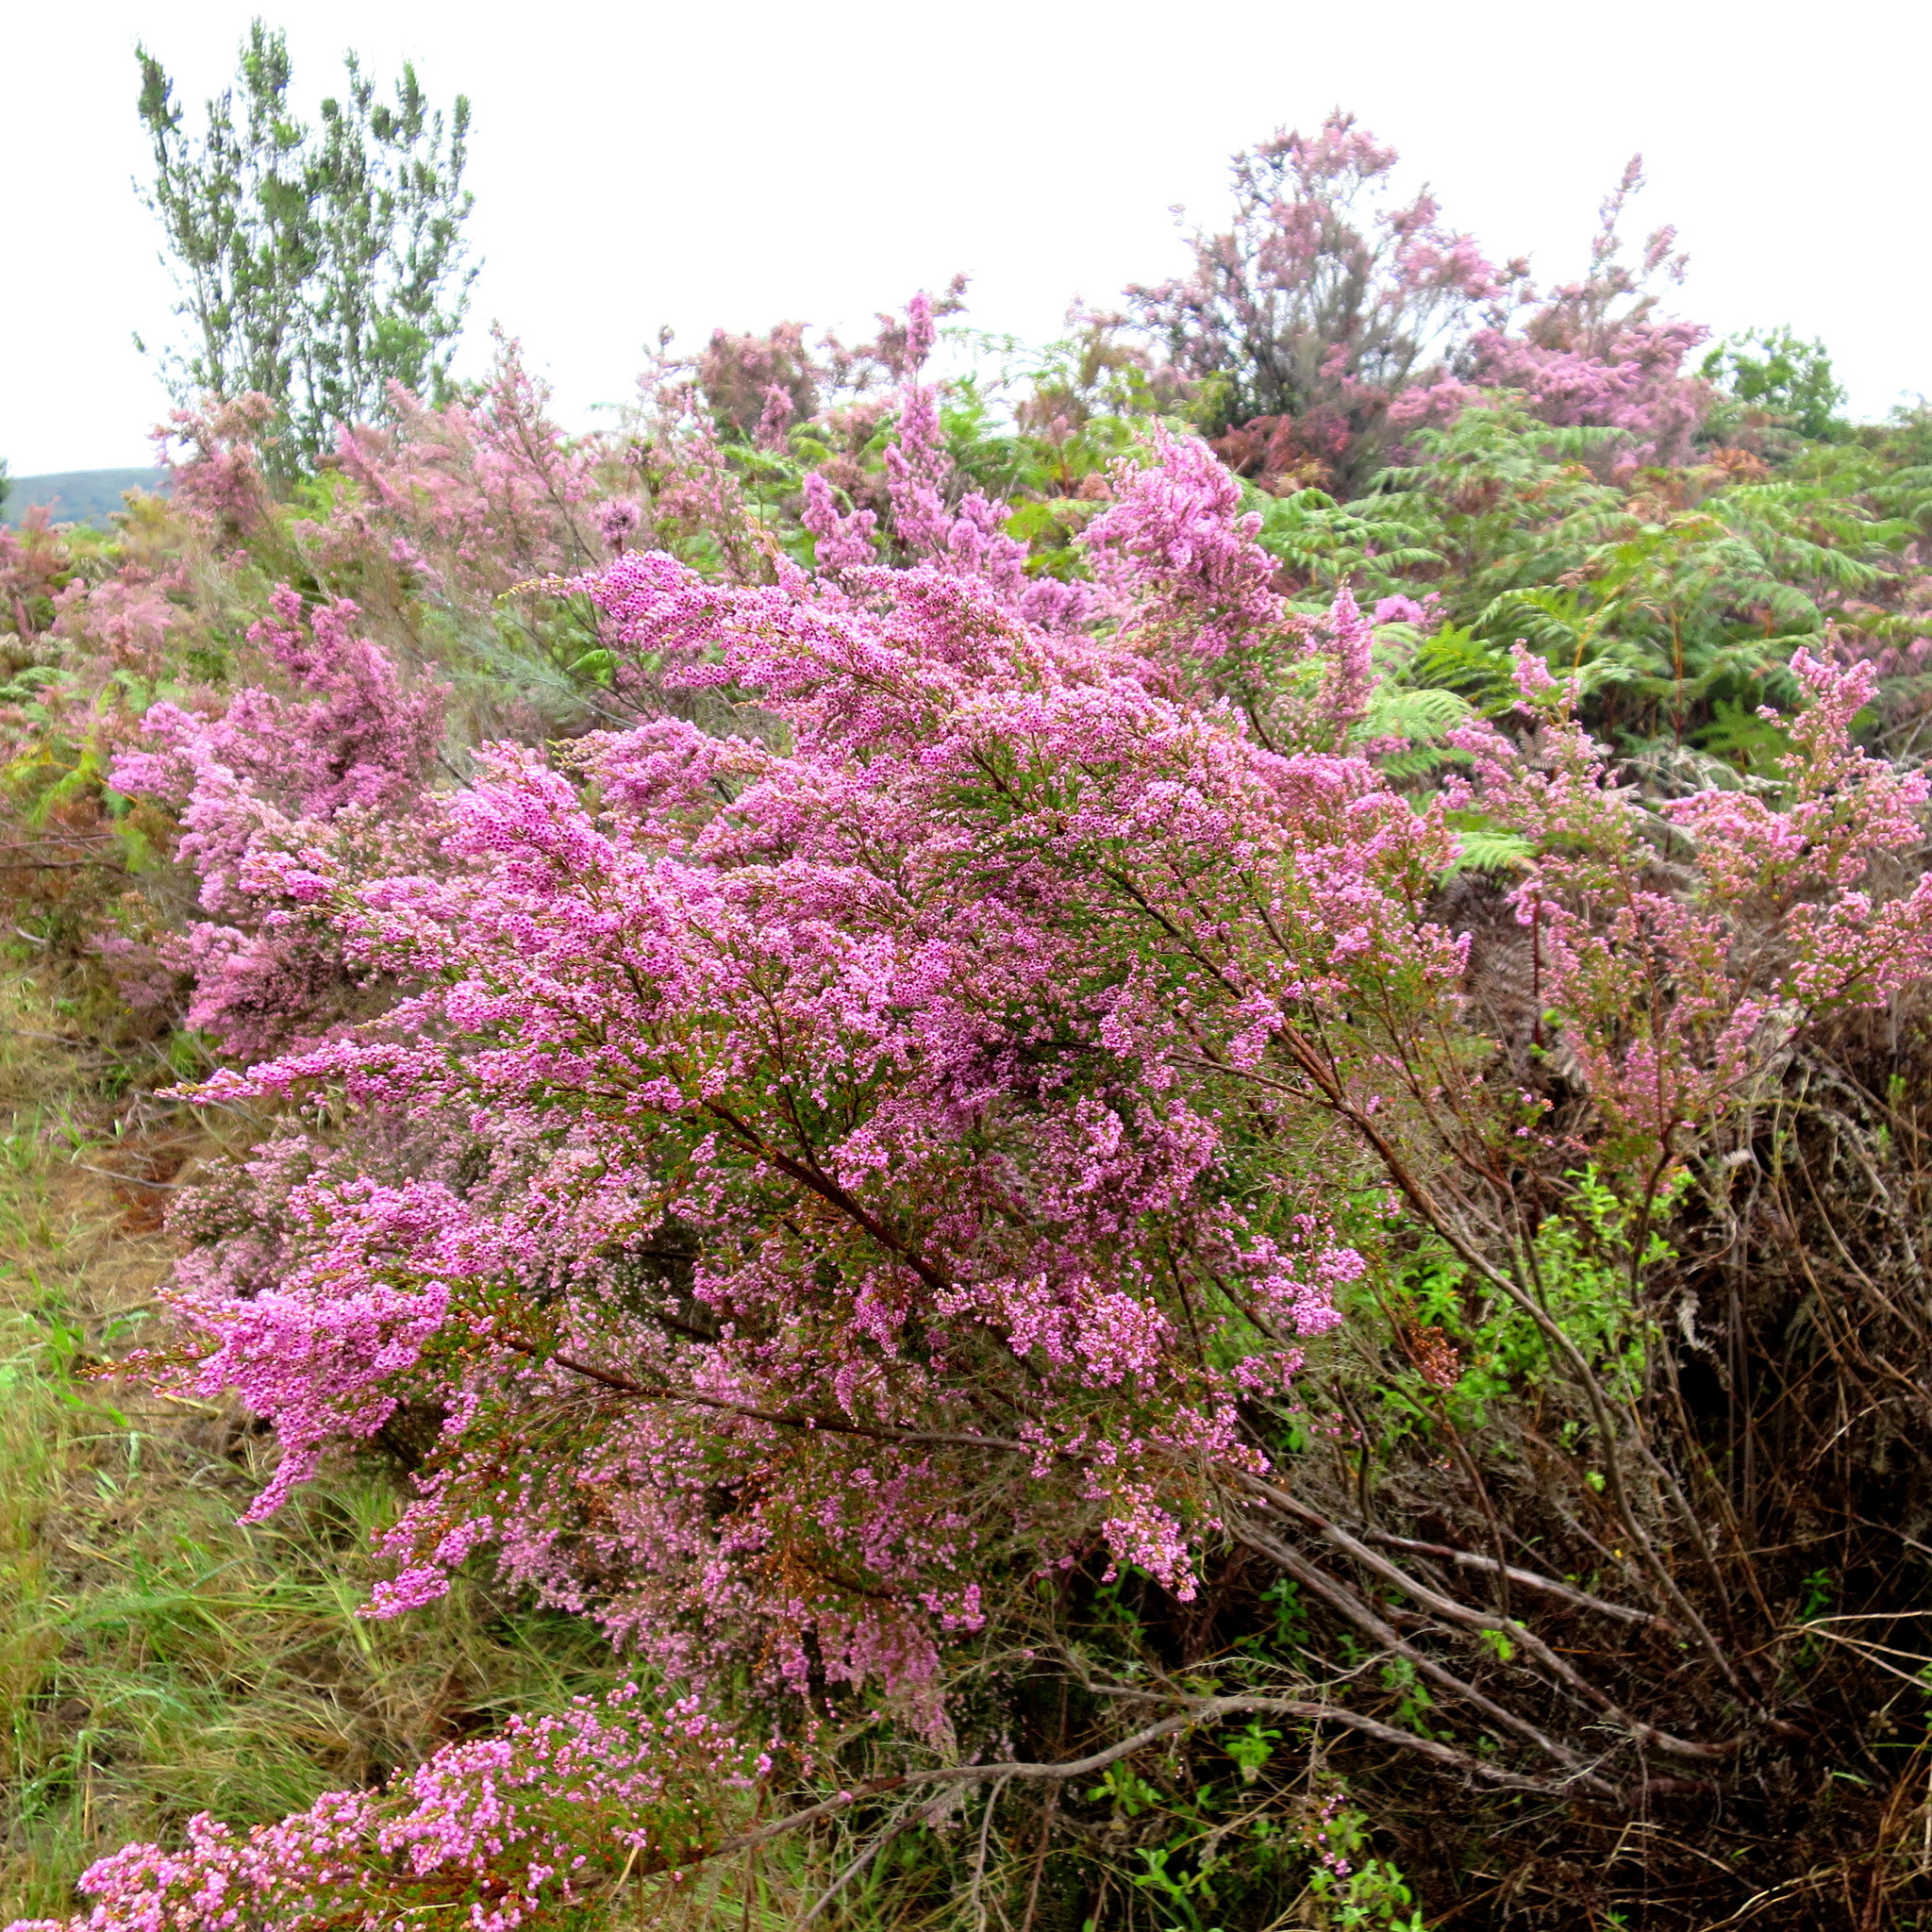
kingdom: Plantae
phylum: Tracheophyta
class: Magnoliopsida
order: Ericales
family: Ericaceae
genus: Erica
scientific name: Erica sparsa
